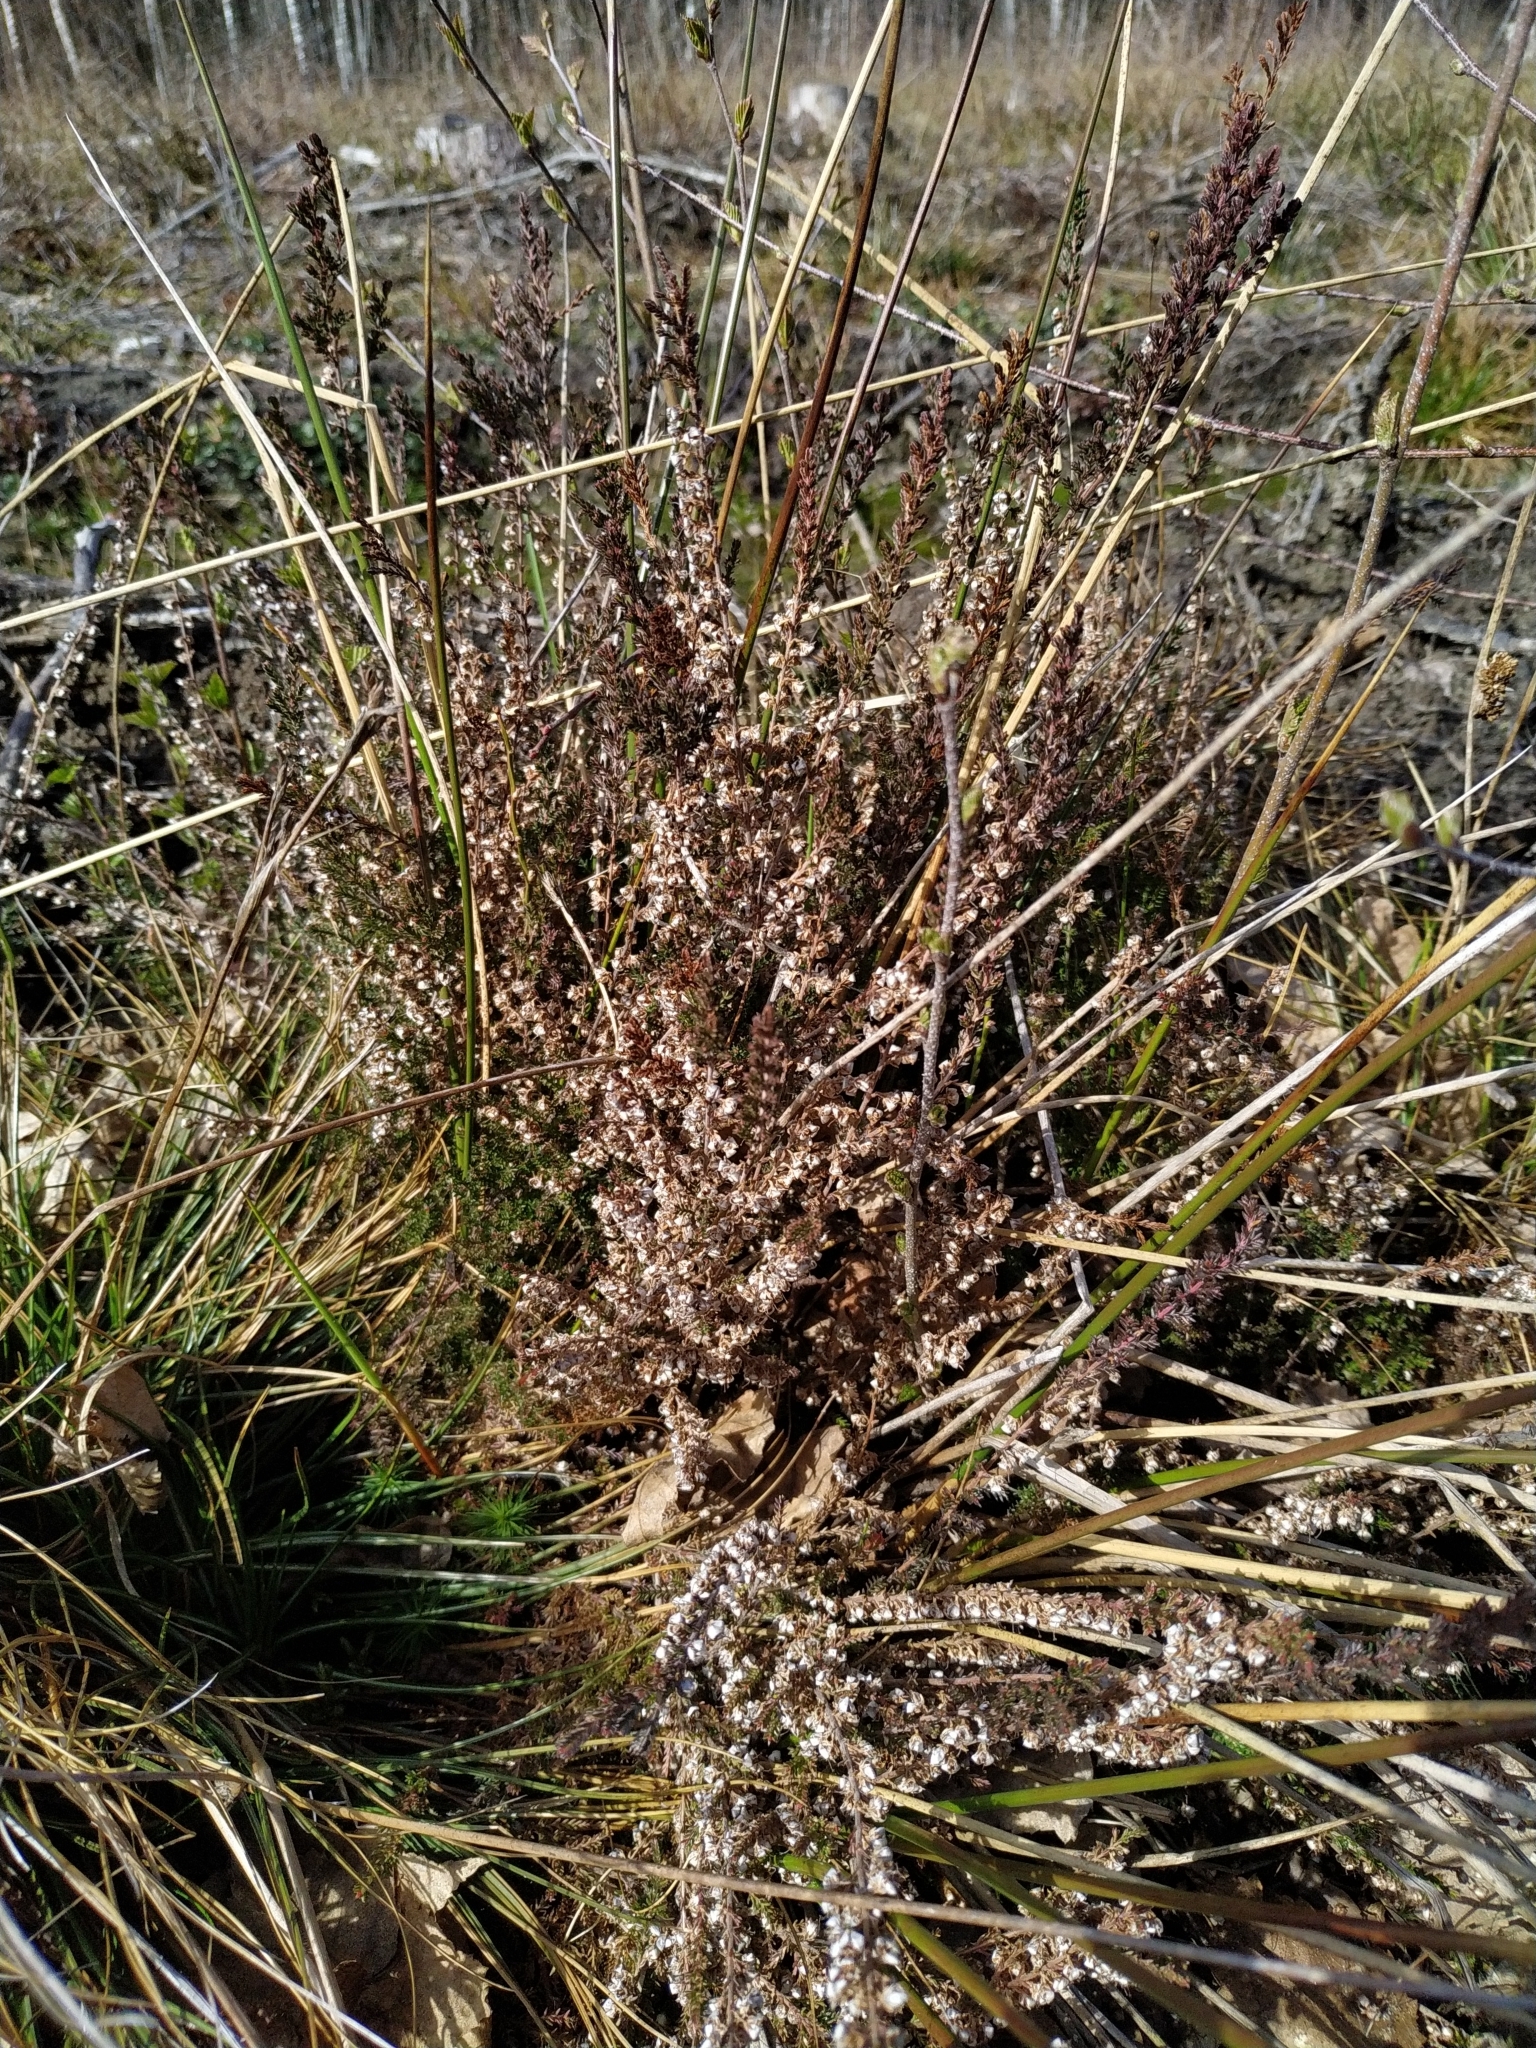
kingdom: Plantae
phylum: Tracheophyta
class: Magnoliopsida
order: Ericales
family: Ericaceae
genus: Calluna
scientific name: Calluna vulgaris
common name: Heather
